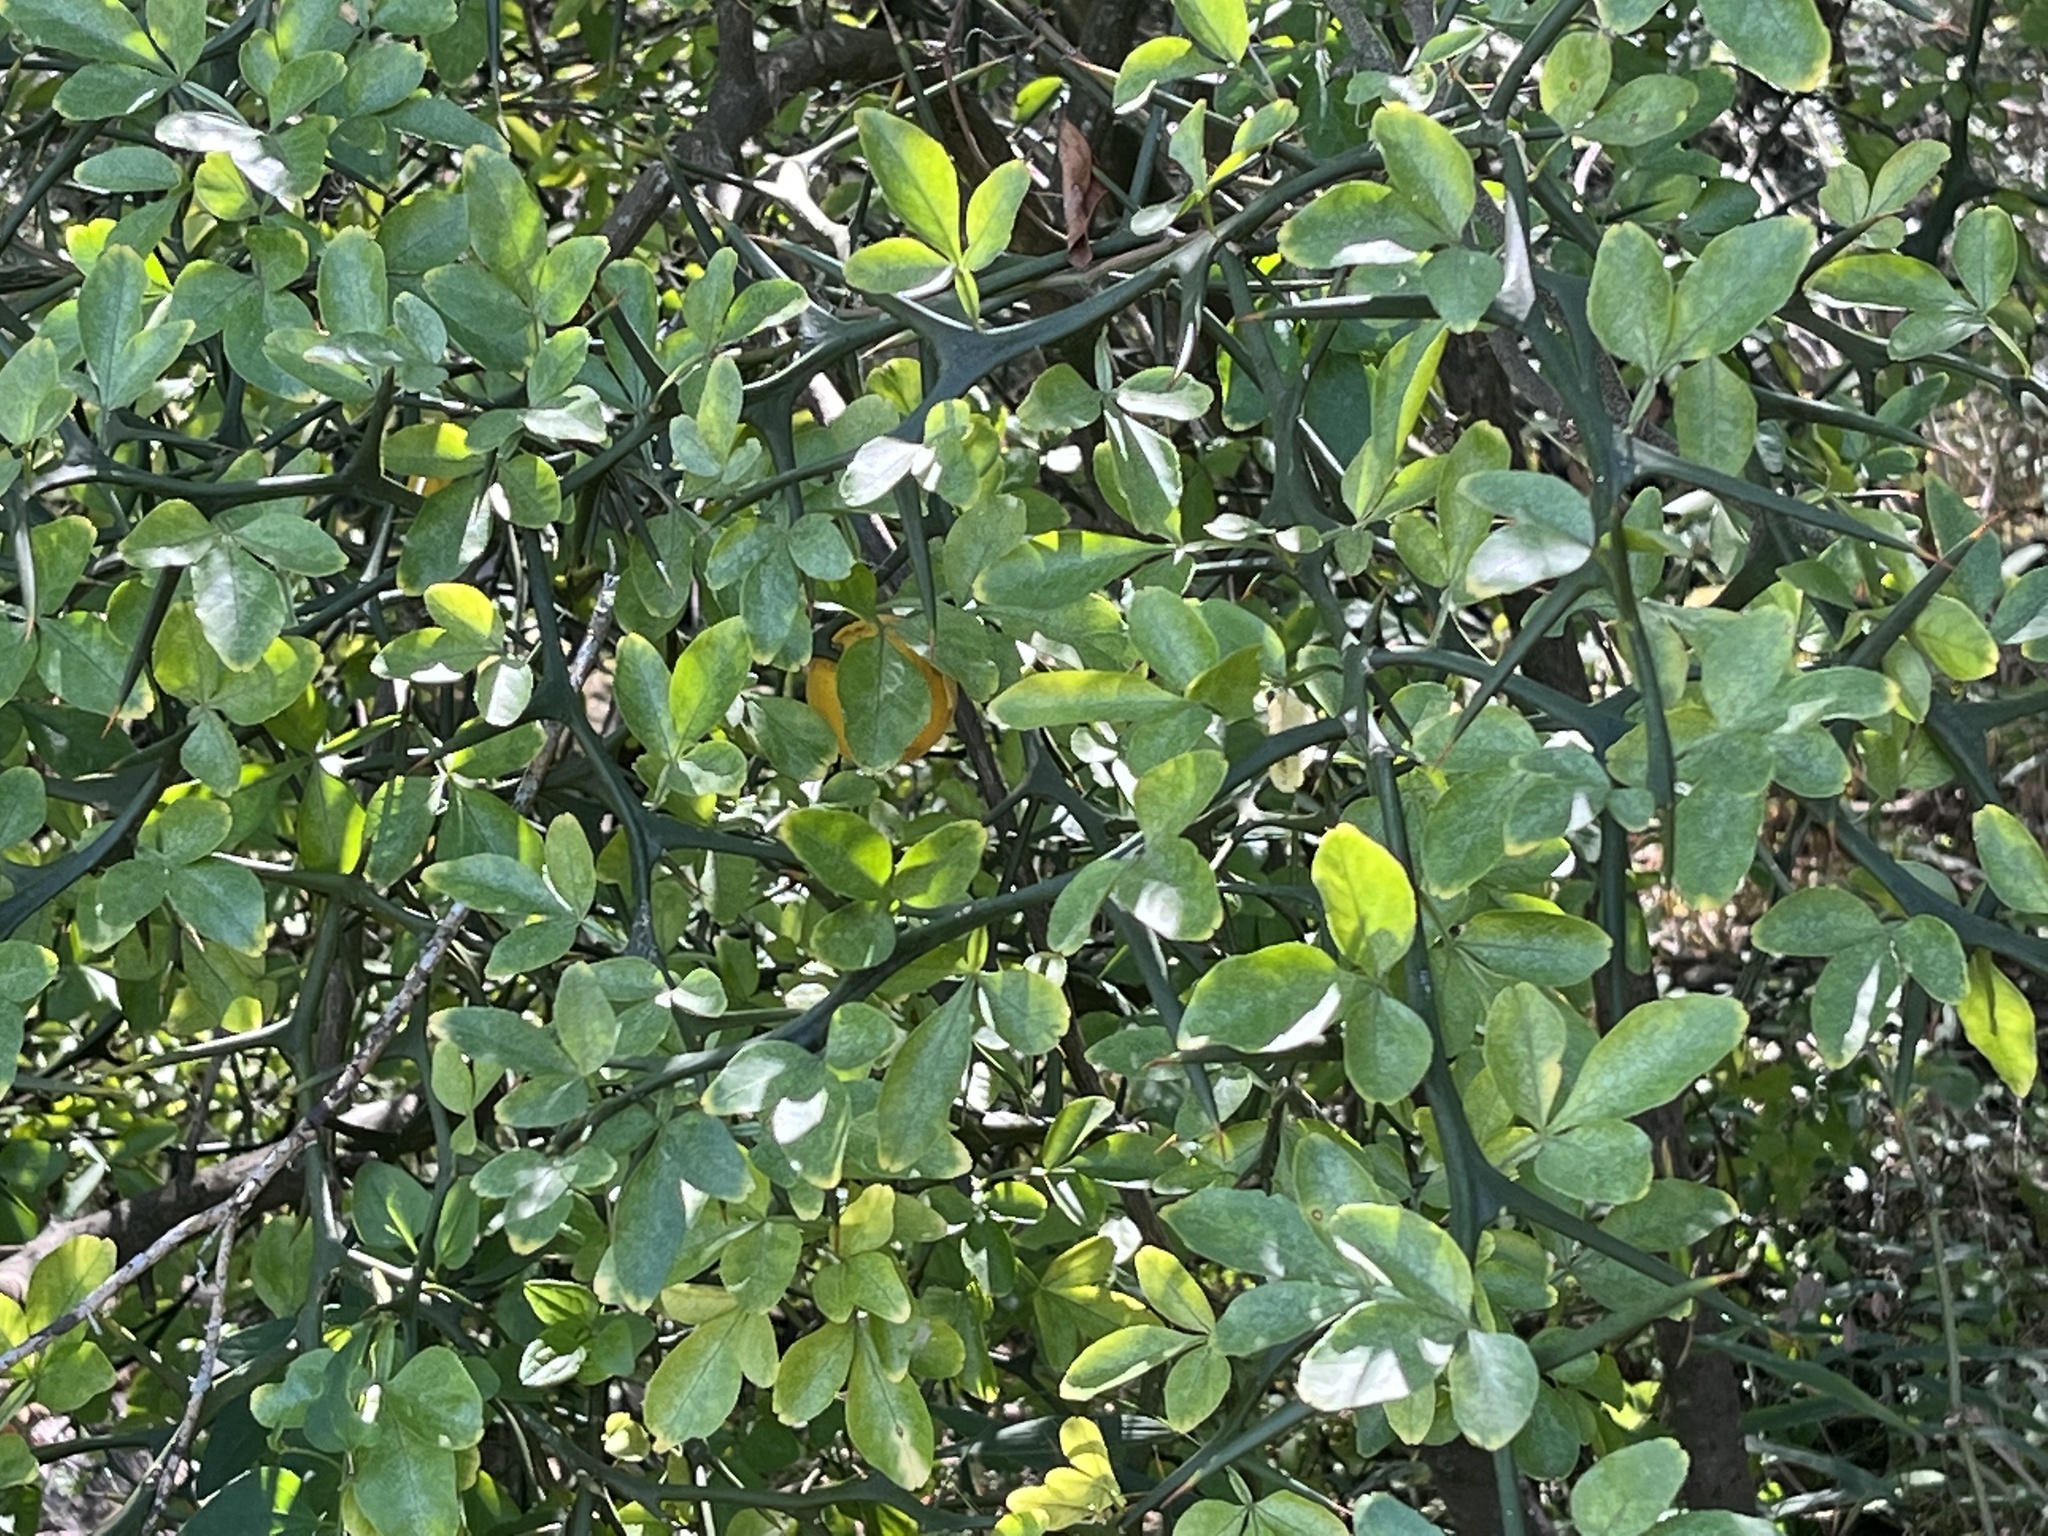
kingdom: Plantae
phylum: Tracheophyta
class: Magnoliopsida
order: Sapindales
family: Rutaceae
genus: Citrus
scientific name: Citrus trifoliata
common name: Japanese bitter-orange
